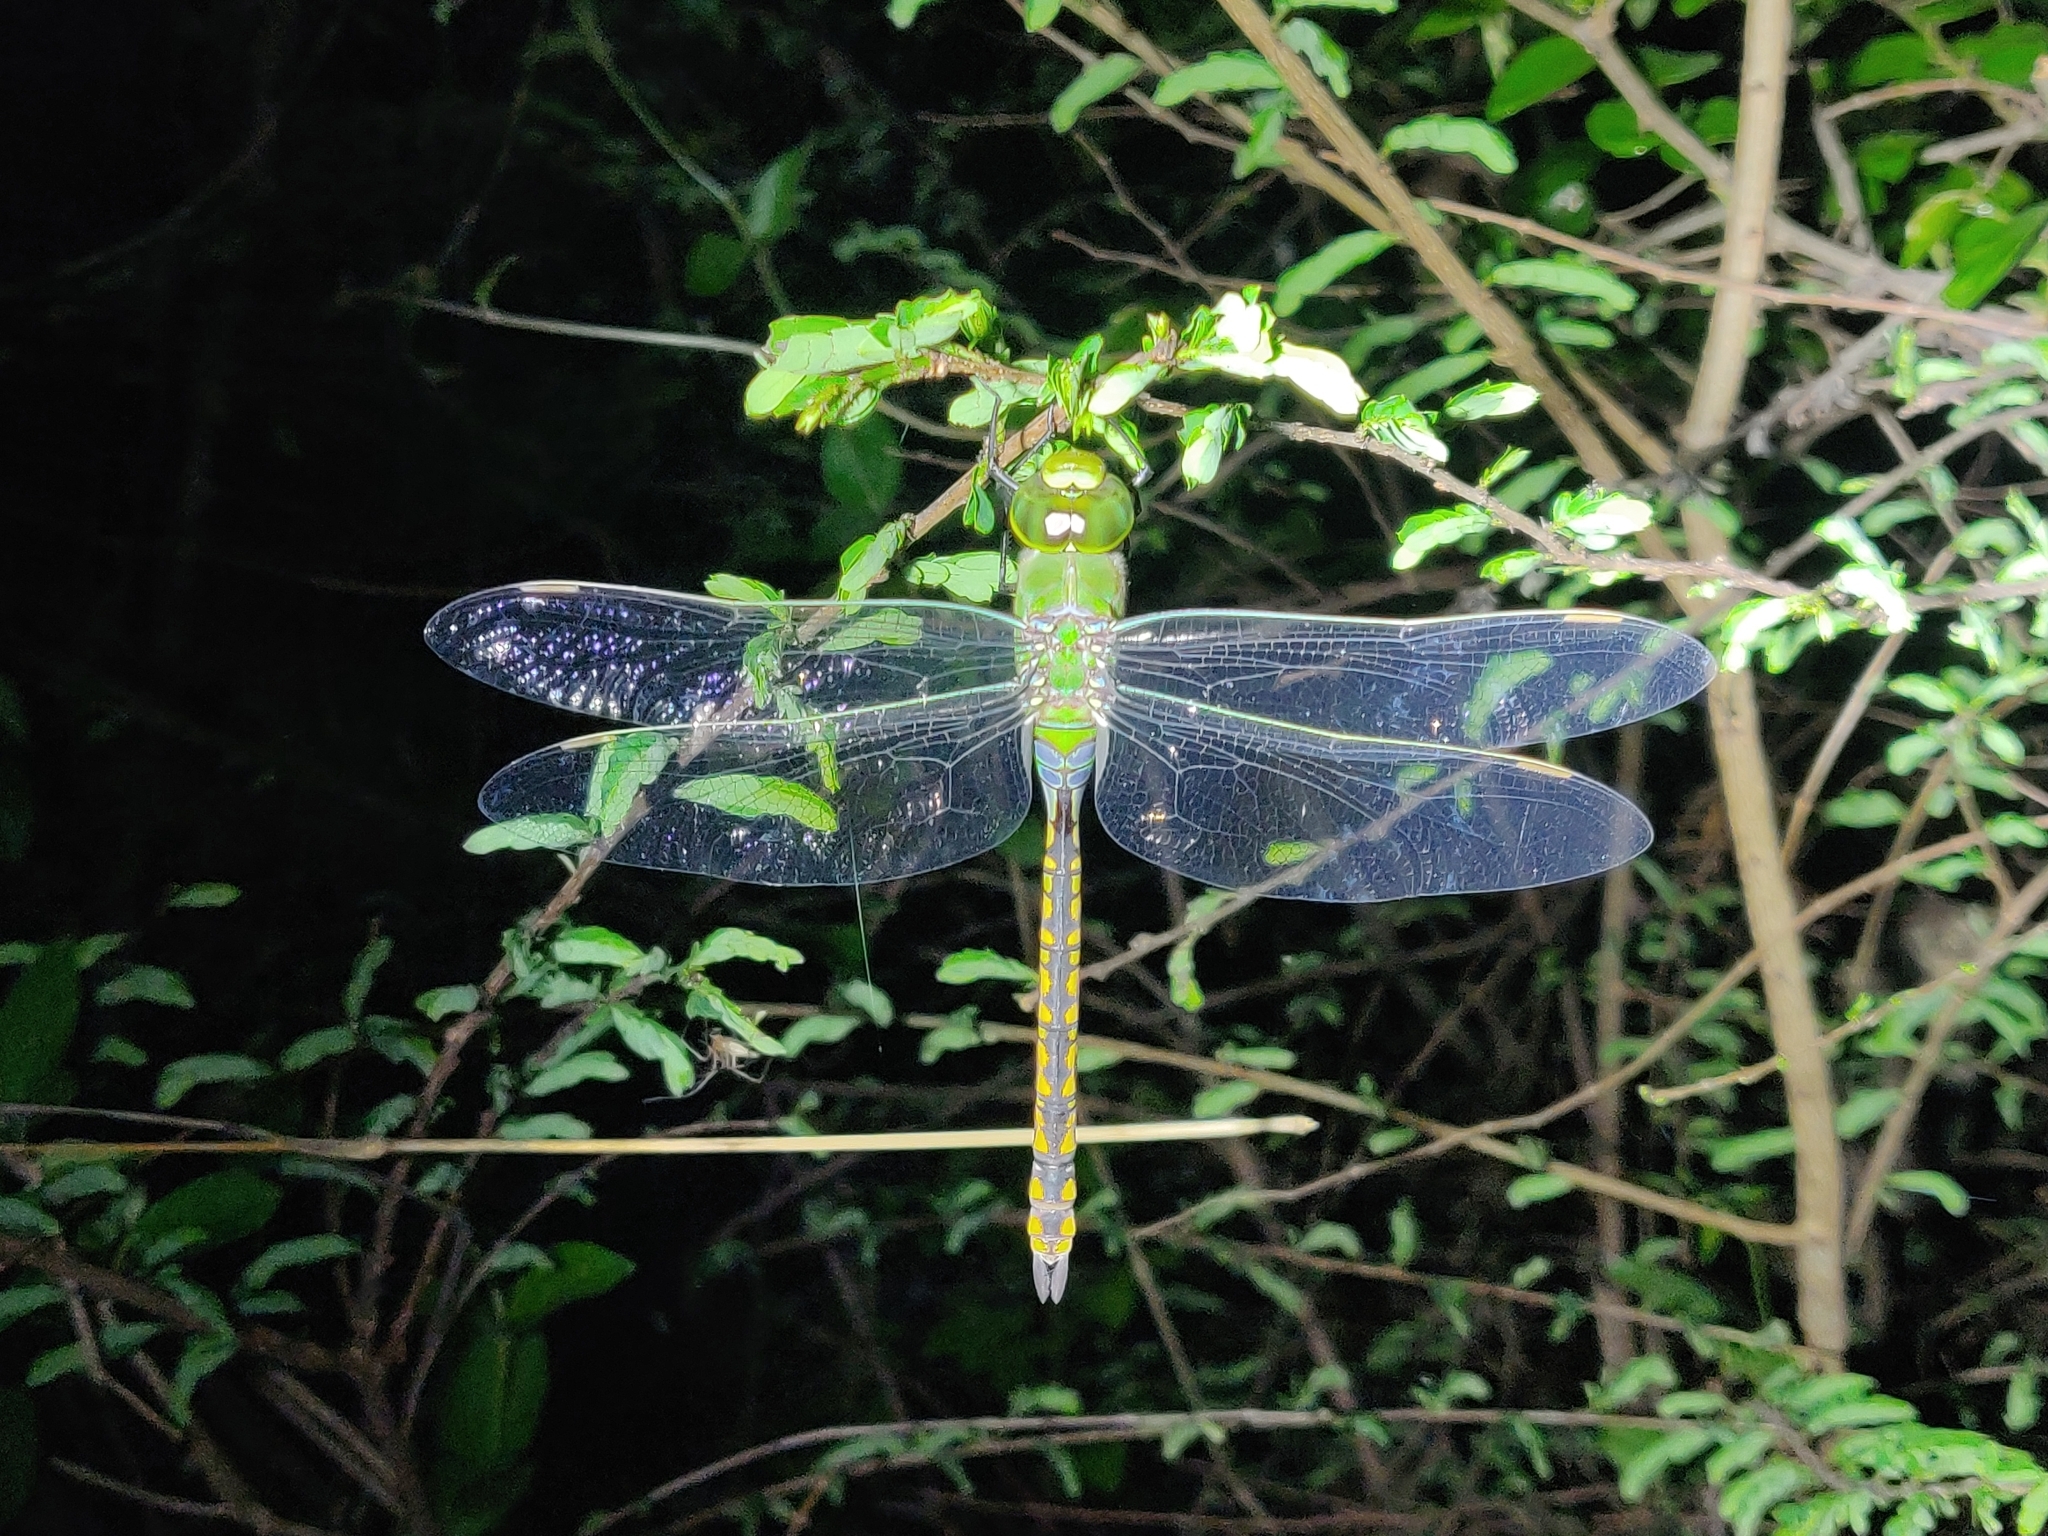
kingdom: Animalia
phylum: Arthropoda
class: Insecta
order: Odonata
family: Aeshnidae
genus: Anax
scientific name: Anax indicus
